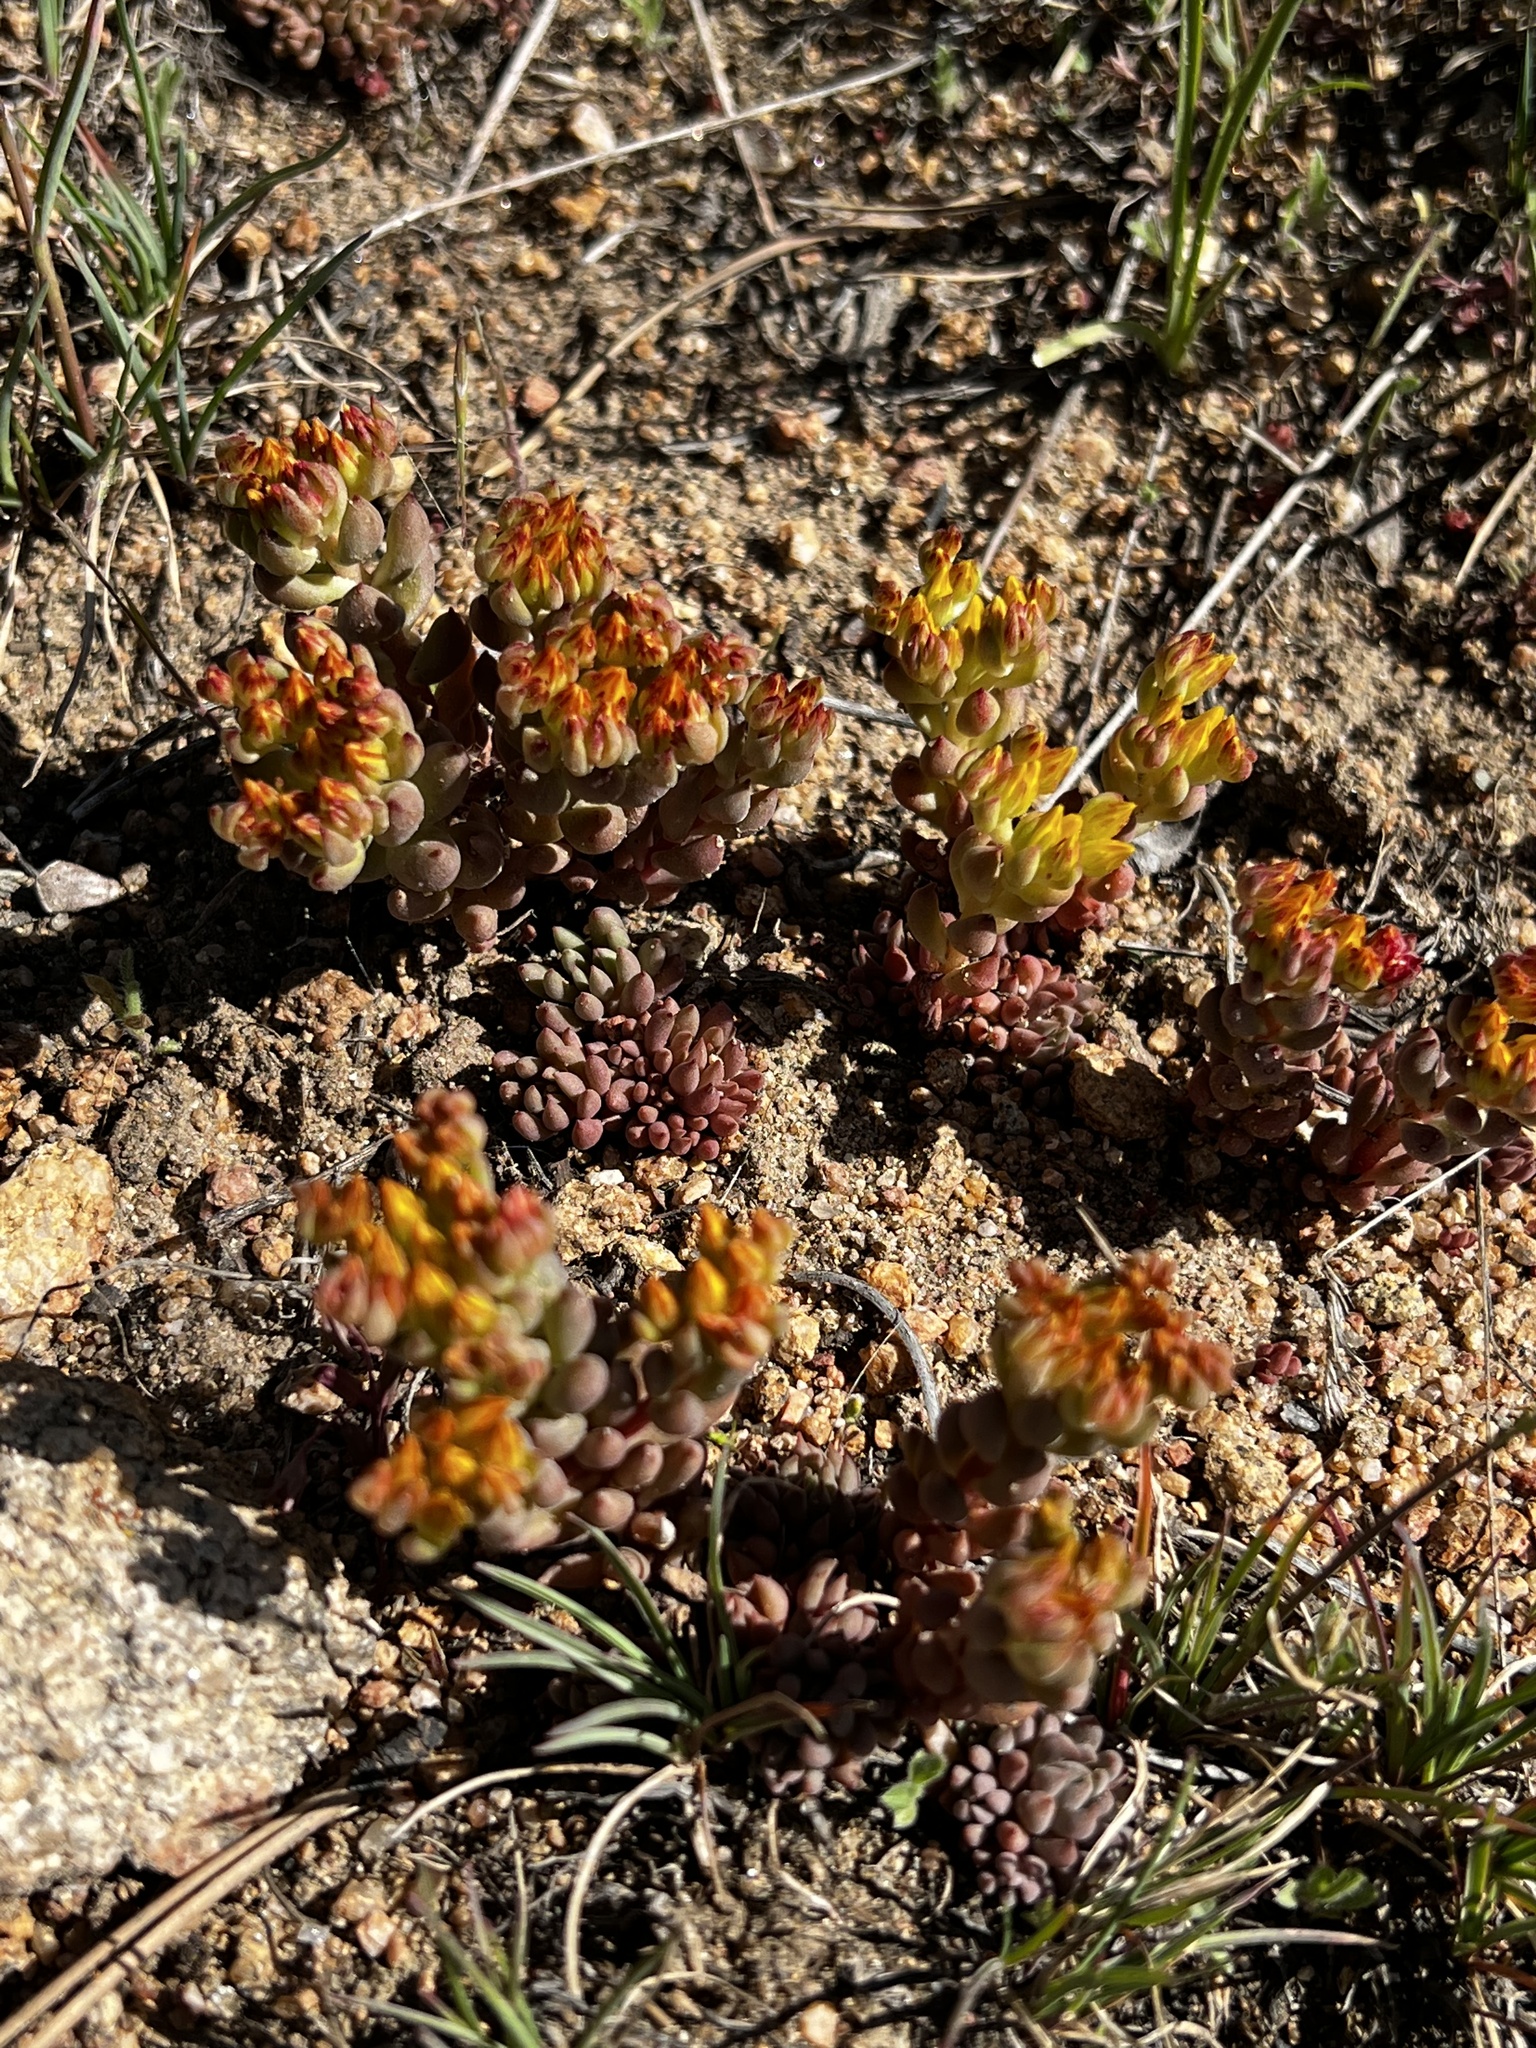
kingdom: Plantae
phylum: Tracheophyta
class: Magnoliopsida
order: Saxifragales
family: Crassulaceae
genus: Sedum
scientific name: Sedum lanceolatum
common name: Common stonecrop
